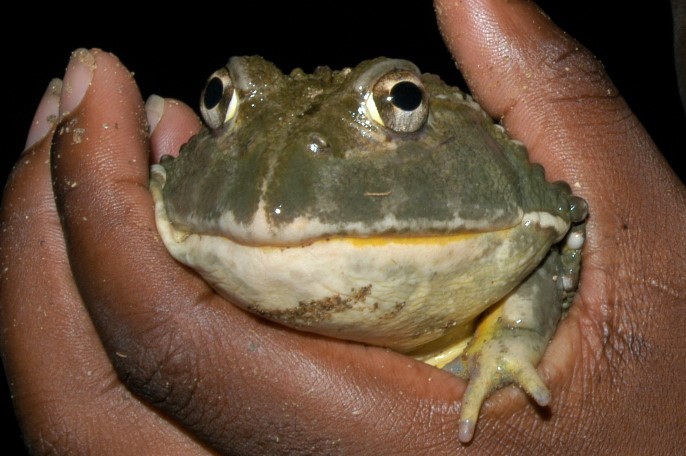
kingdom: Animalia
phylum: Chordata
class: Amphibia
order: Anura
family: Pyxicephalidae
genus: Pyxicephalus
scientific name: Pyxicephalus adspersus
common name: African bullfrog
